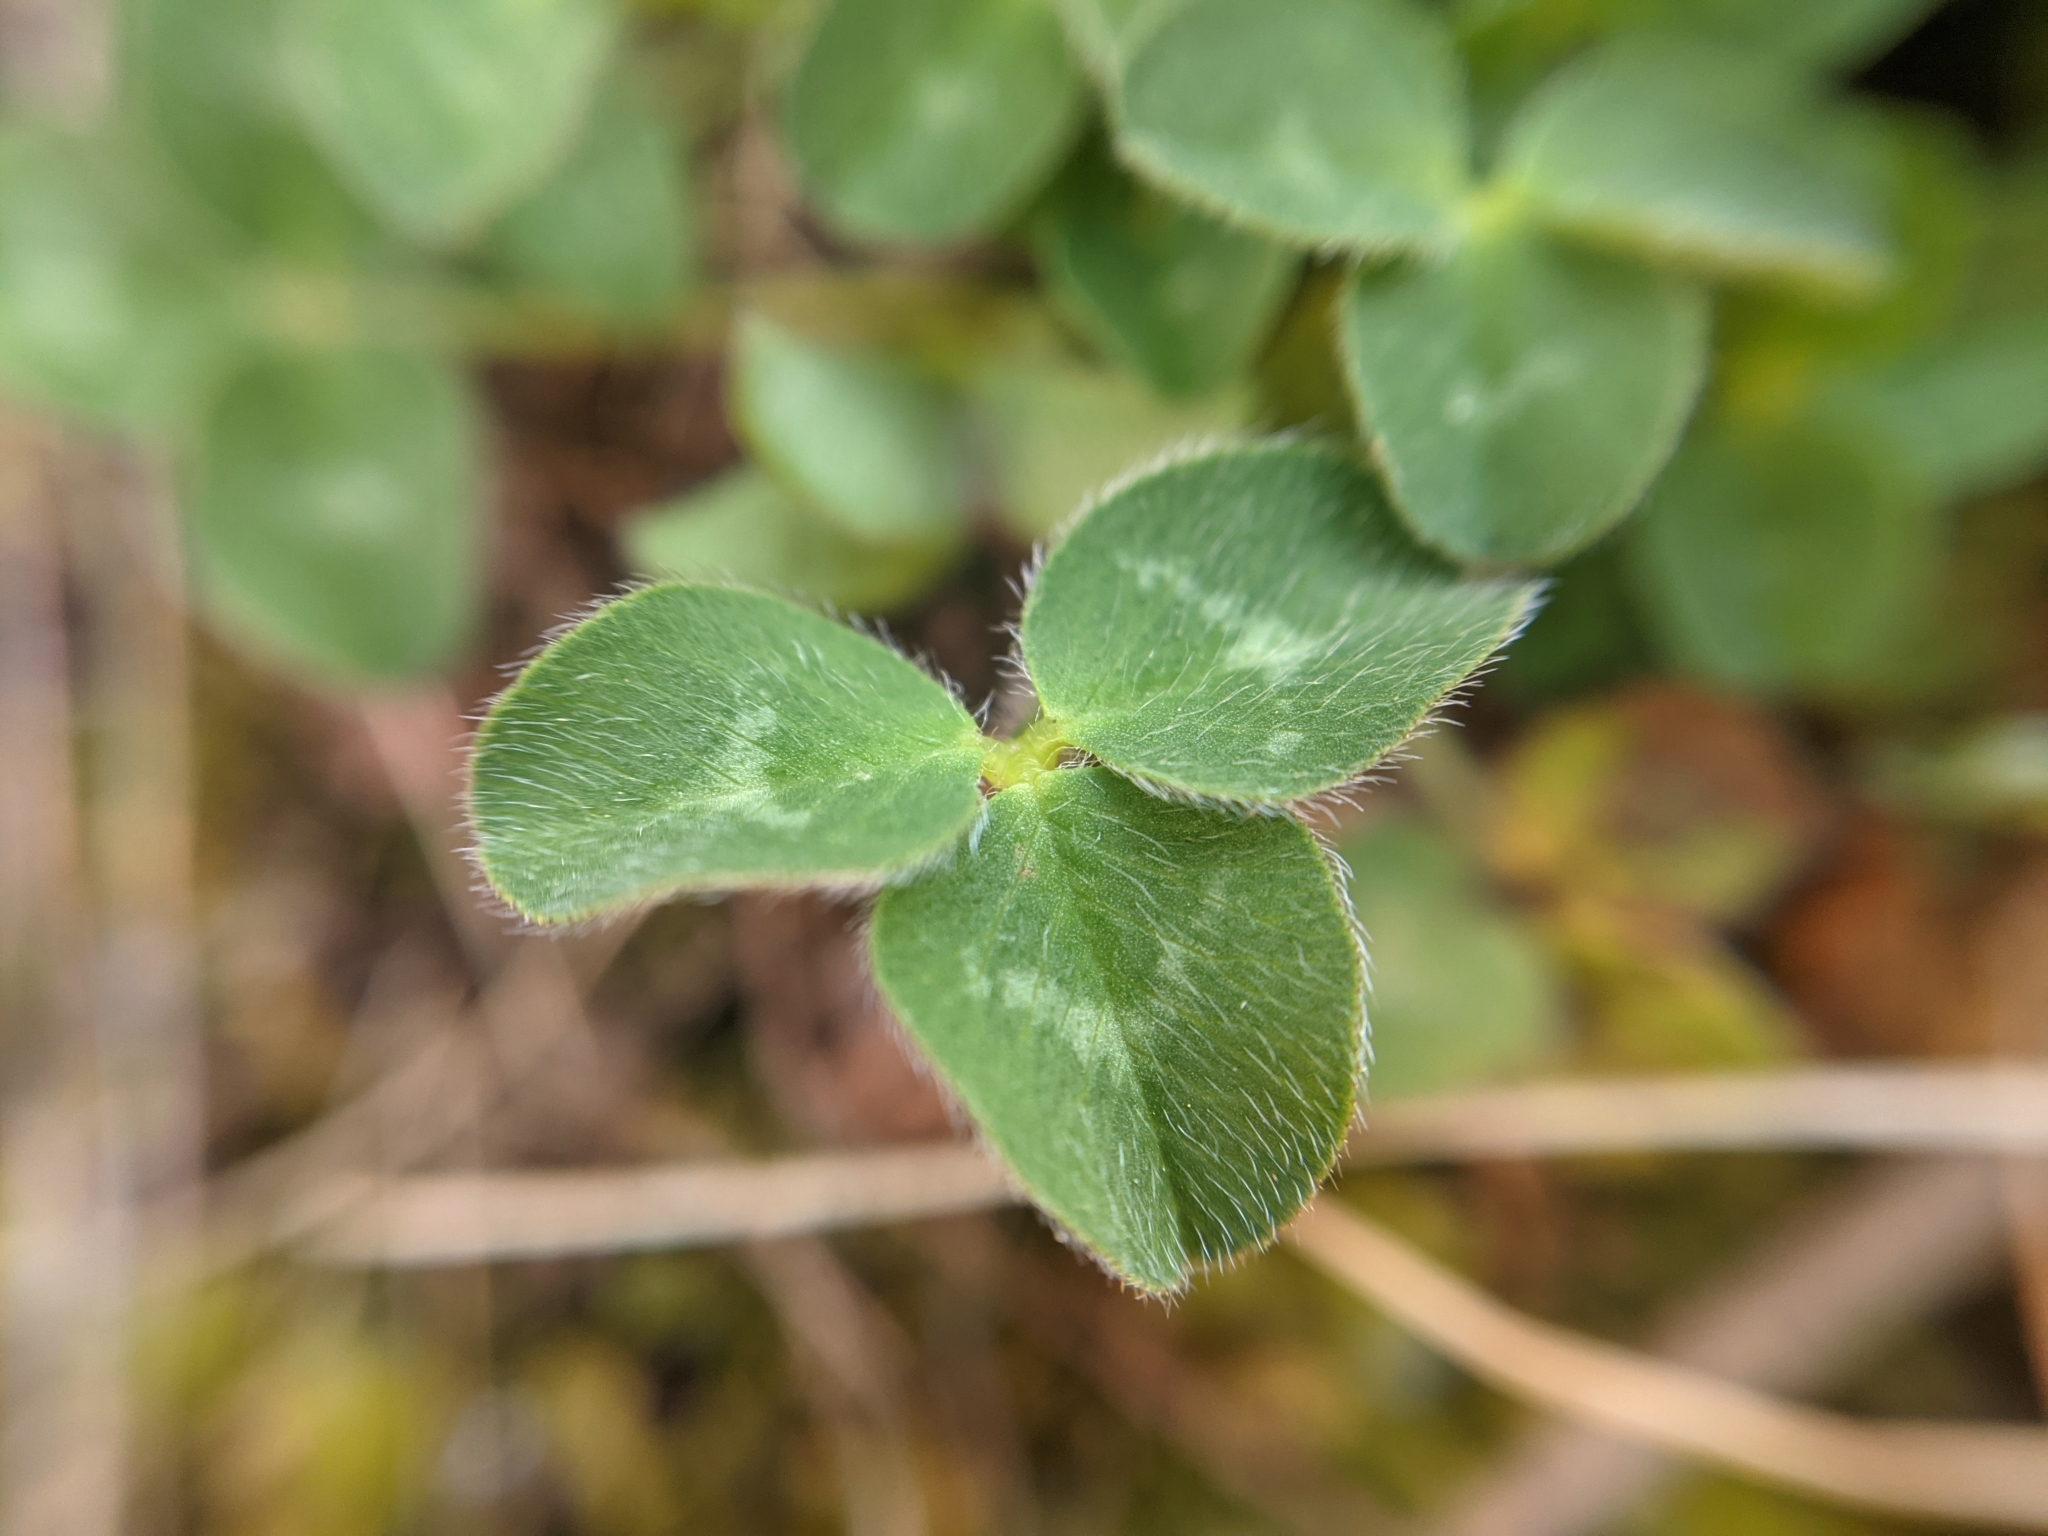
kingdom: Plantae
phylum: Tracheophyta
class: Magnoliopsida
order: Fabales
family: Fabaceae
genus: Trifolium
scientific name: Trifolium pratense
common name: Red clover
